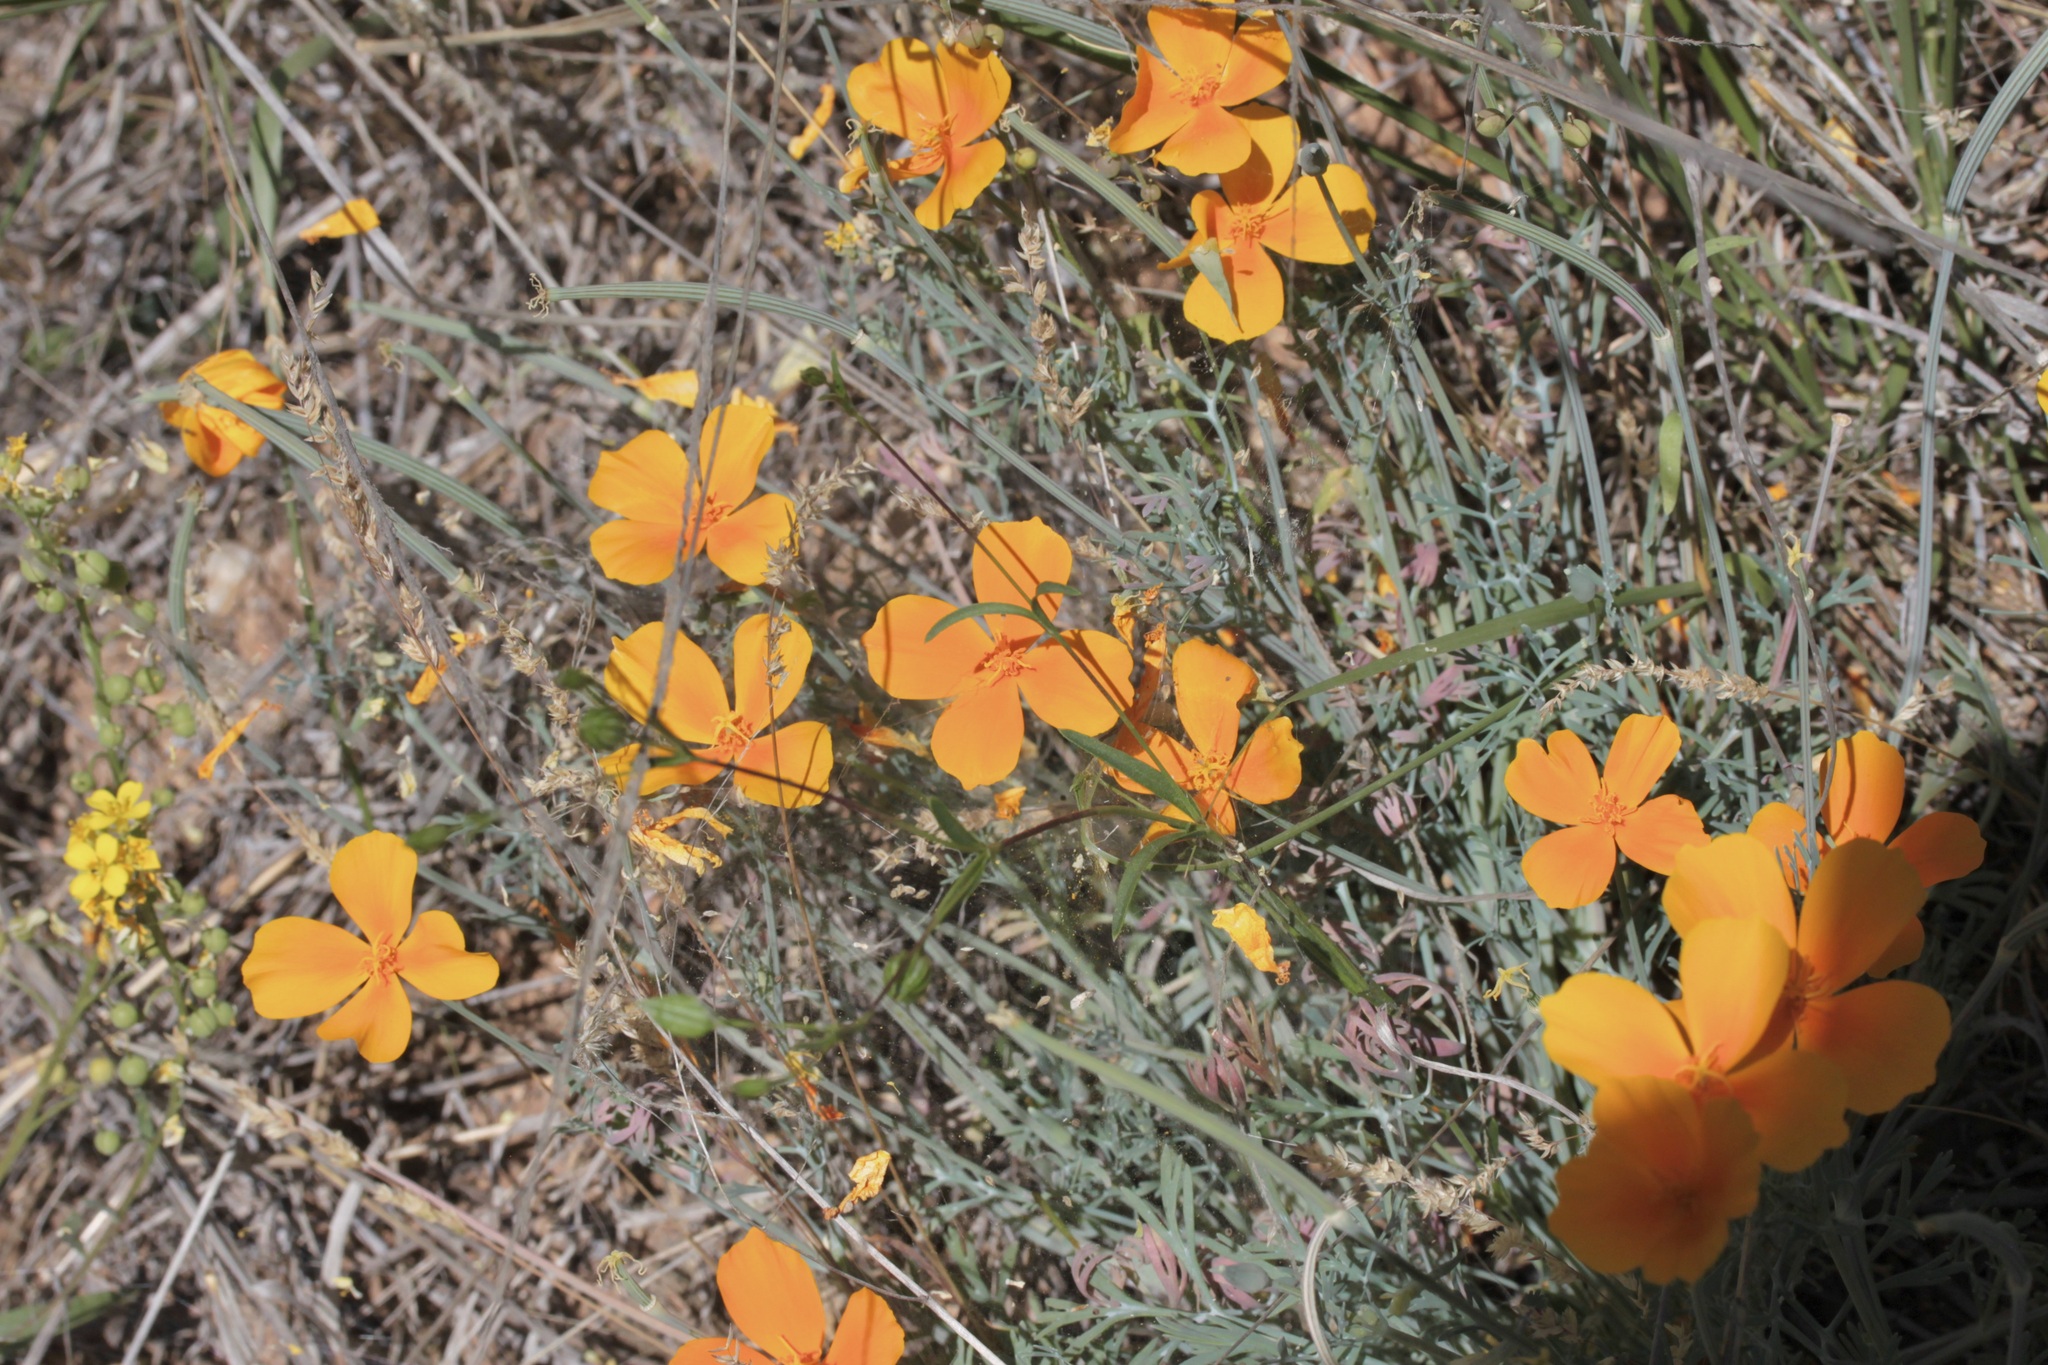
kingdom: Plantae
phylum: Tracheophyta
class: Magnoliopsida
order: Ranunculales
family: Papaveraceae
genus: Eschscholzia
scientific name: Eschscholzia californica
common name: California poppy
